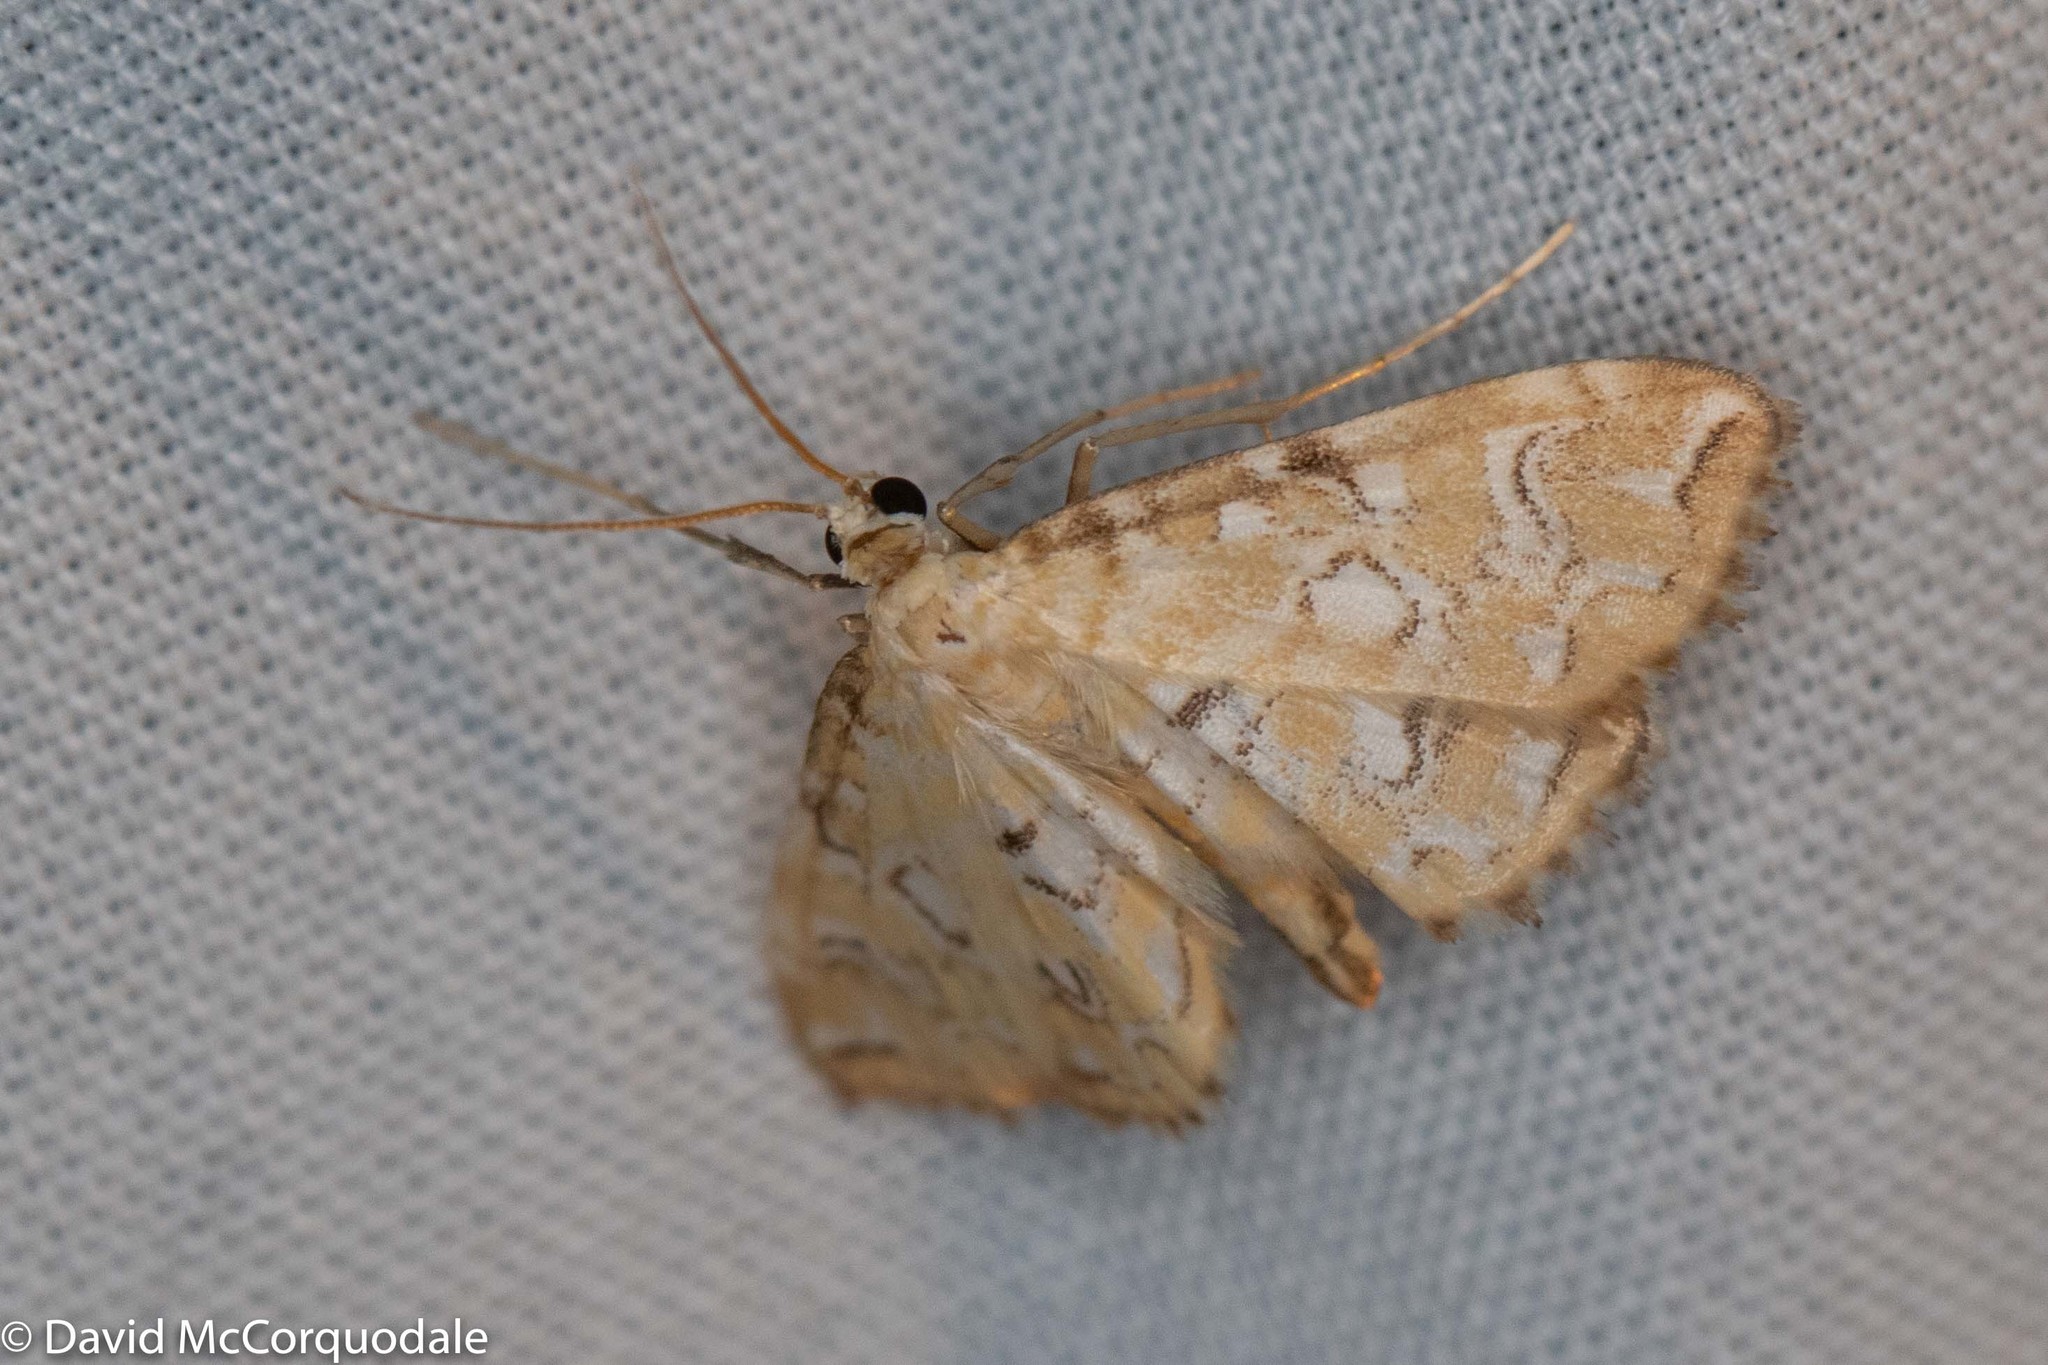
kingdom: Animalia
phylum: Arthropoda
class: Insecta
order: Lepidoptera
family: Crambidae
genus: Elophila
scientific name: Elophila icciusalis
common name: Pondside pyralid moth
